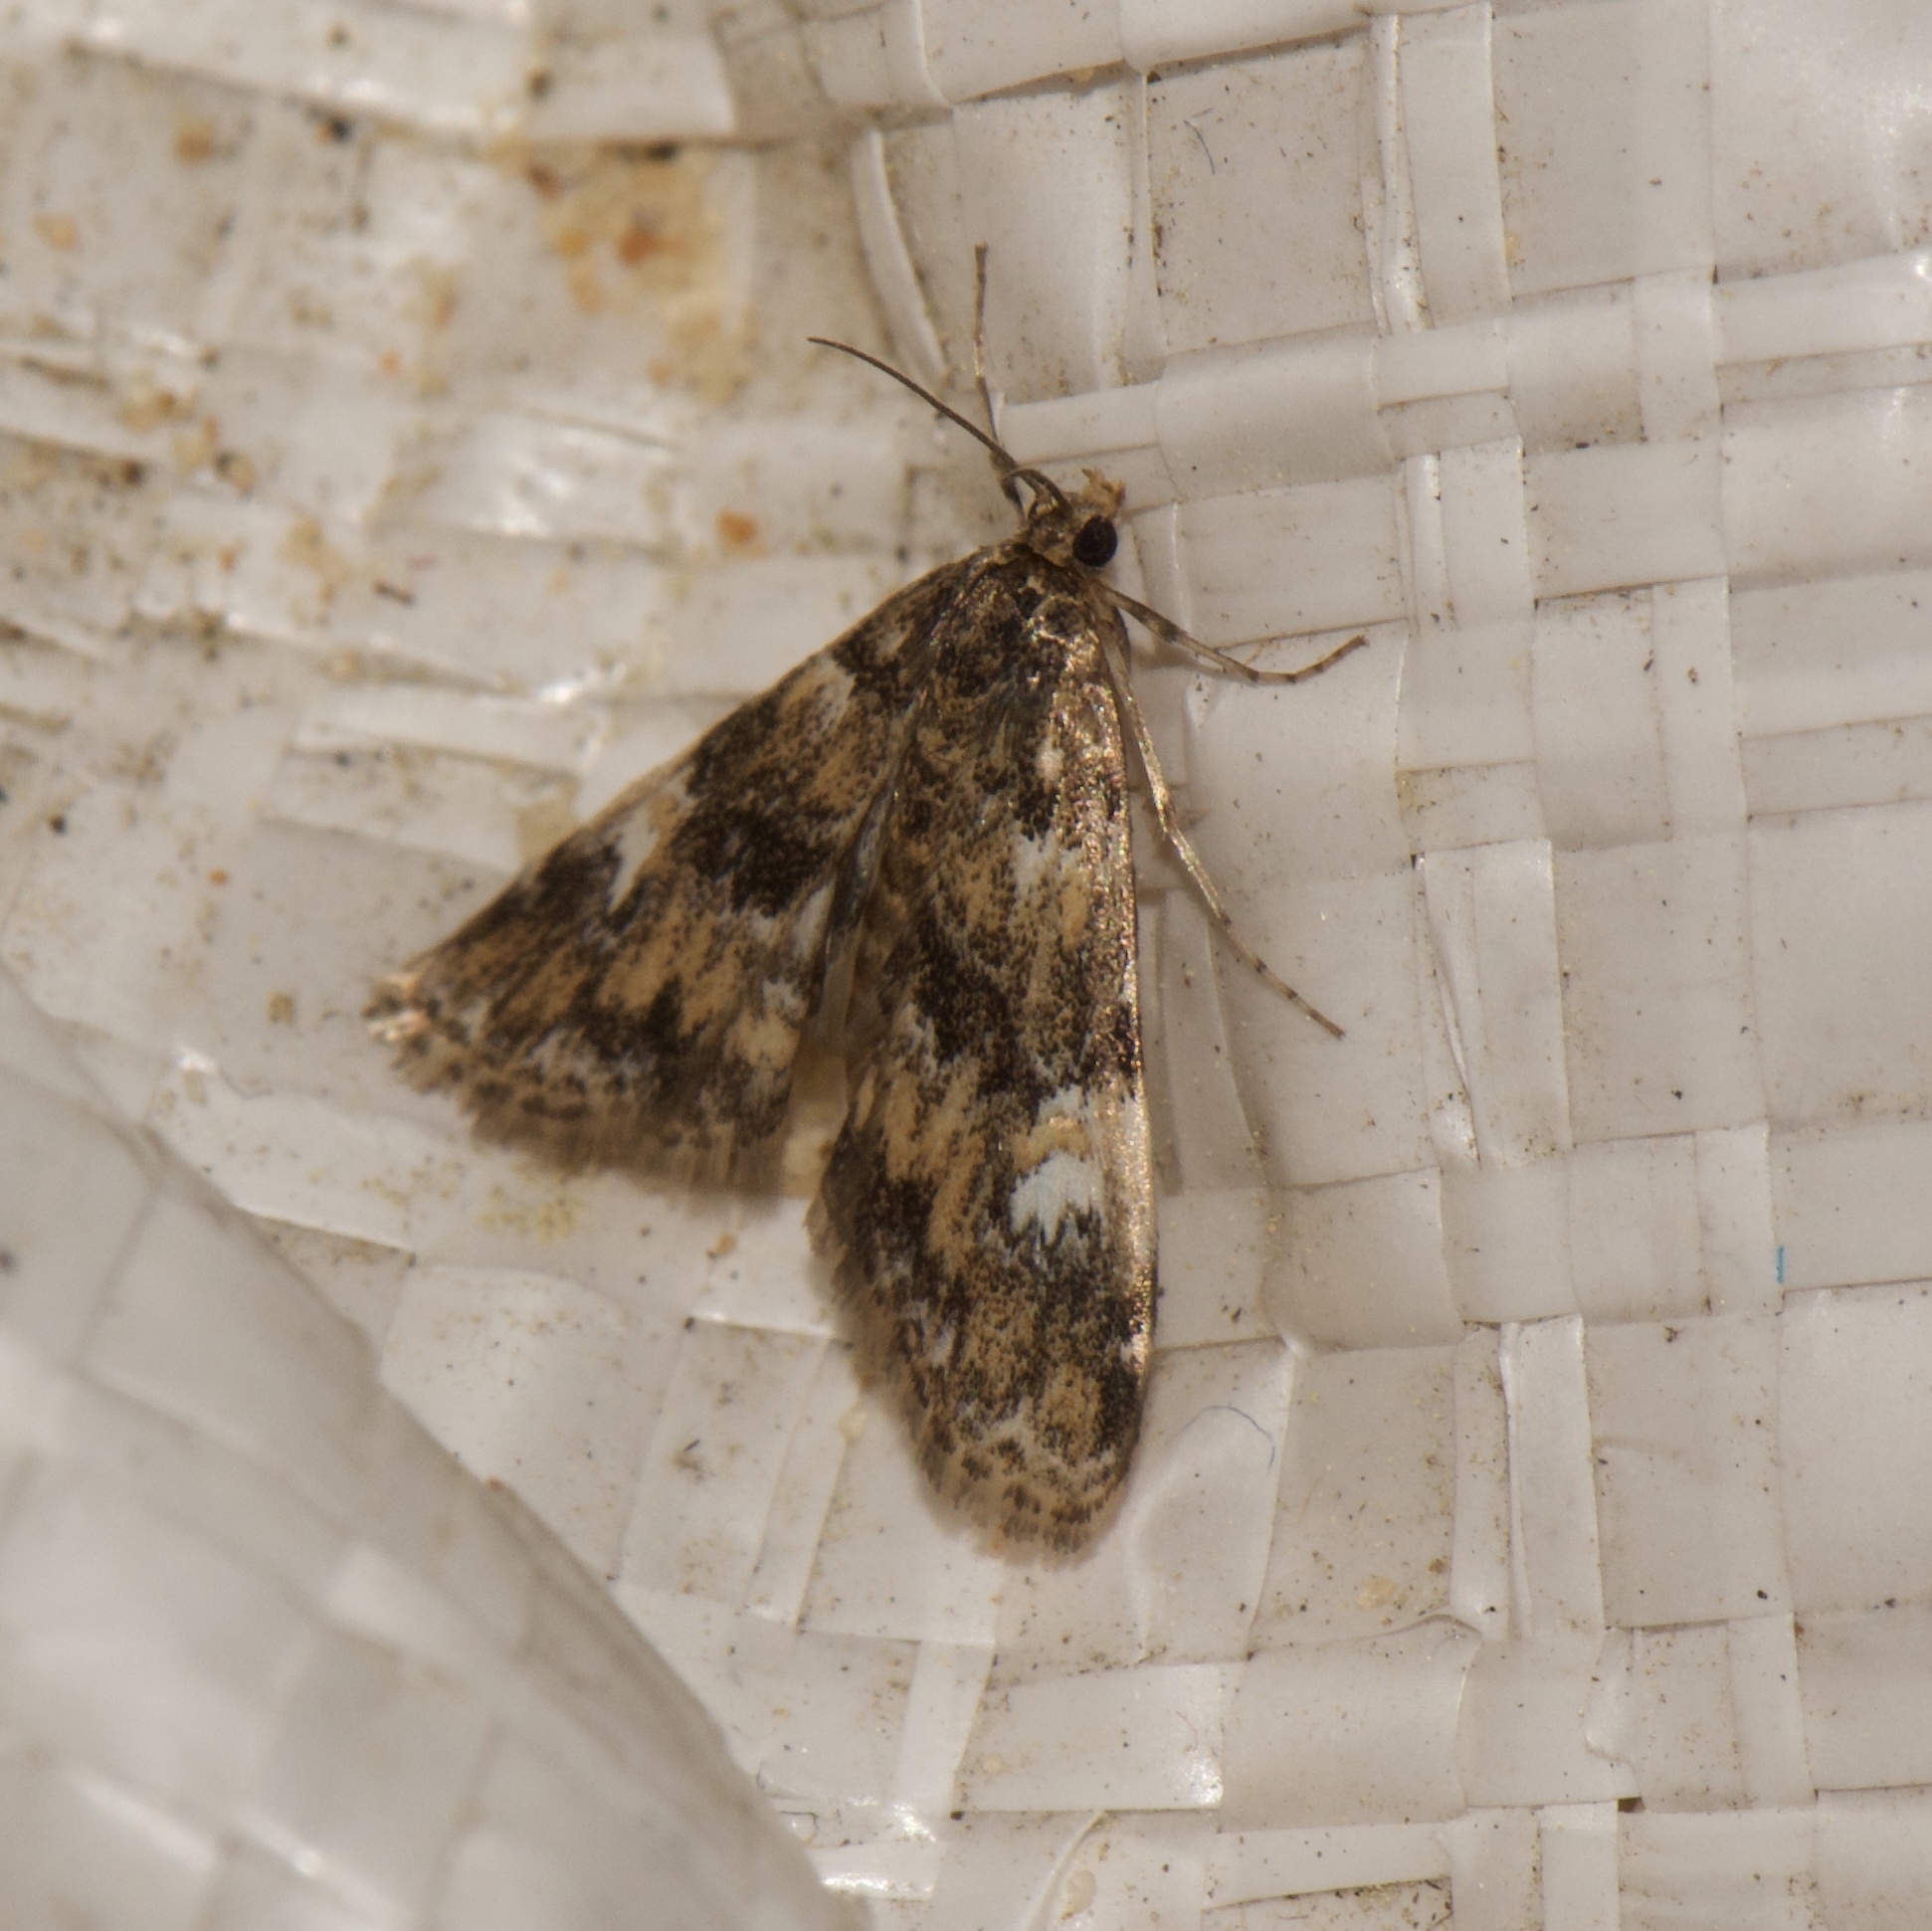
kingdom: Animalia
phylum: Arthropoda
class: Insecta
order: Lepidoptera
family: Crambidae
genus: Elophila
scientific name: Elophila obliteralis
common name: Waterlily leafcutter moth
